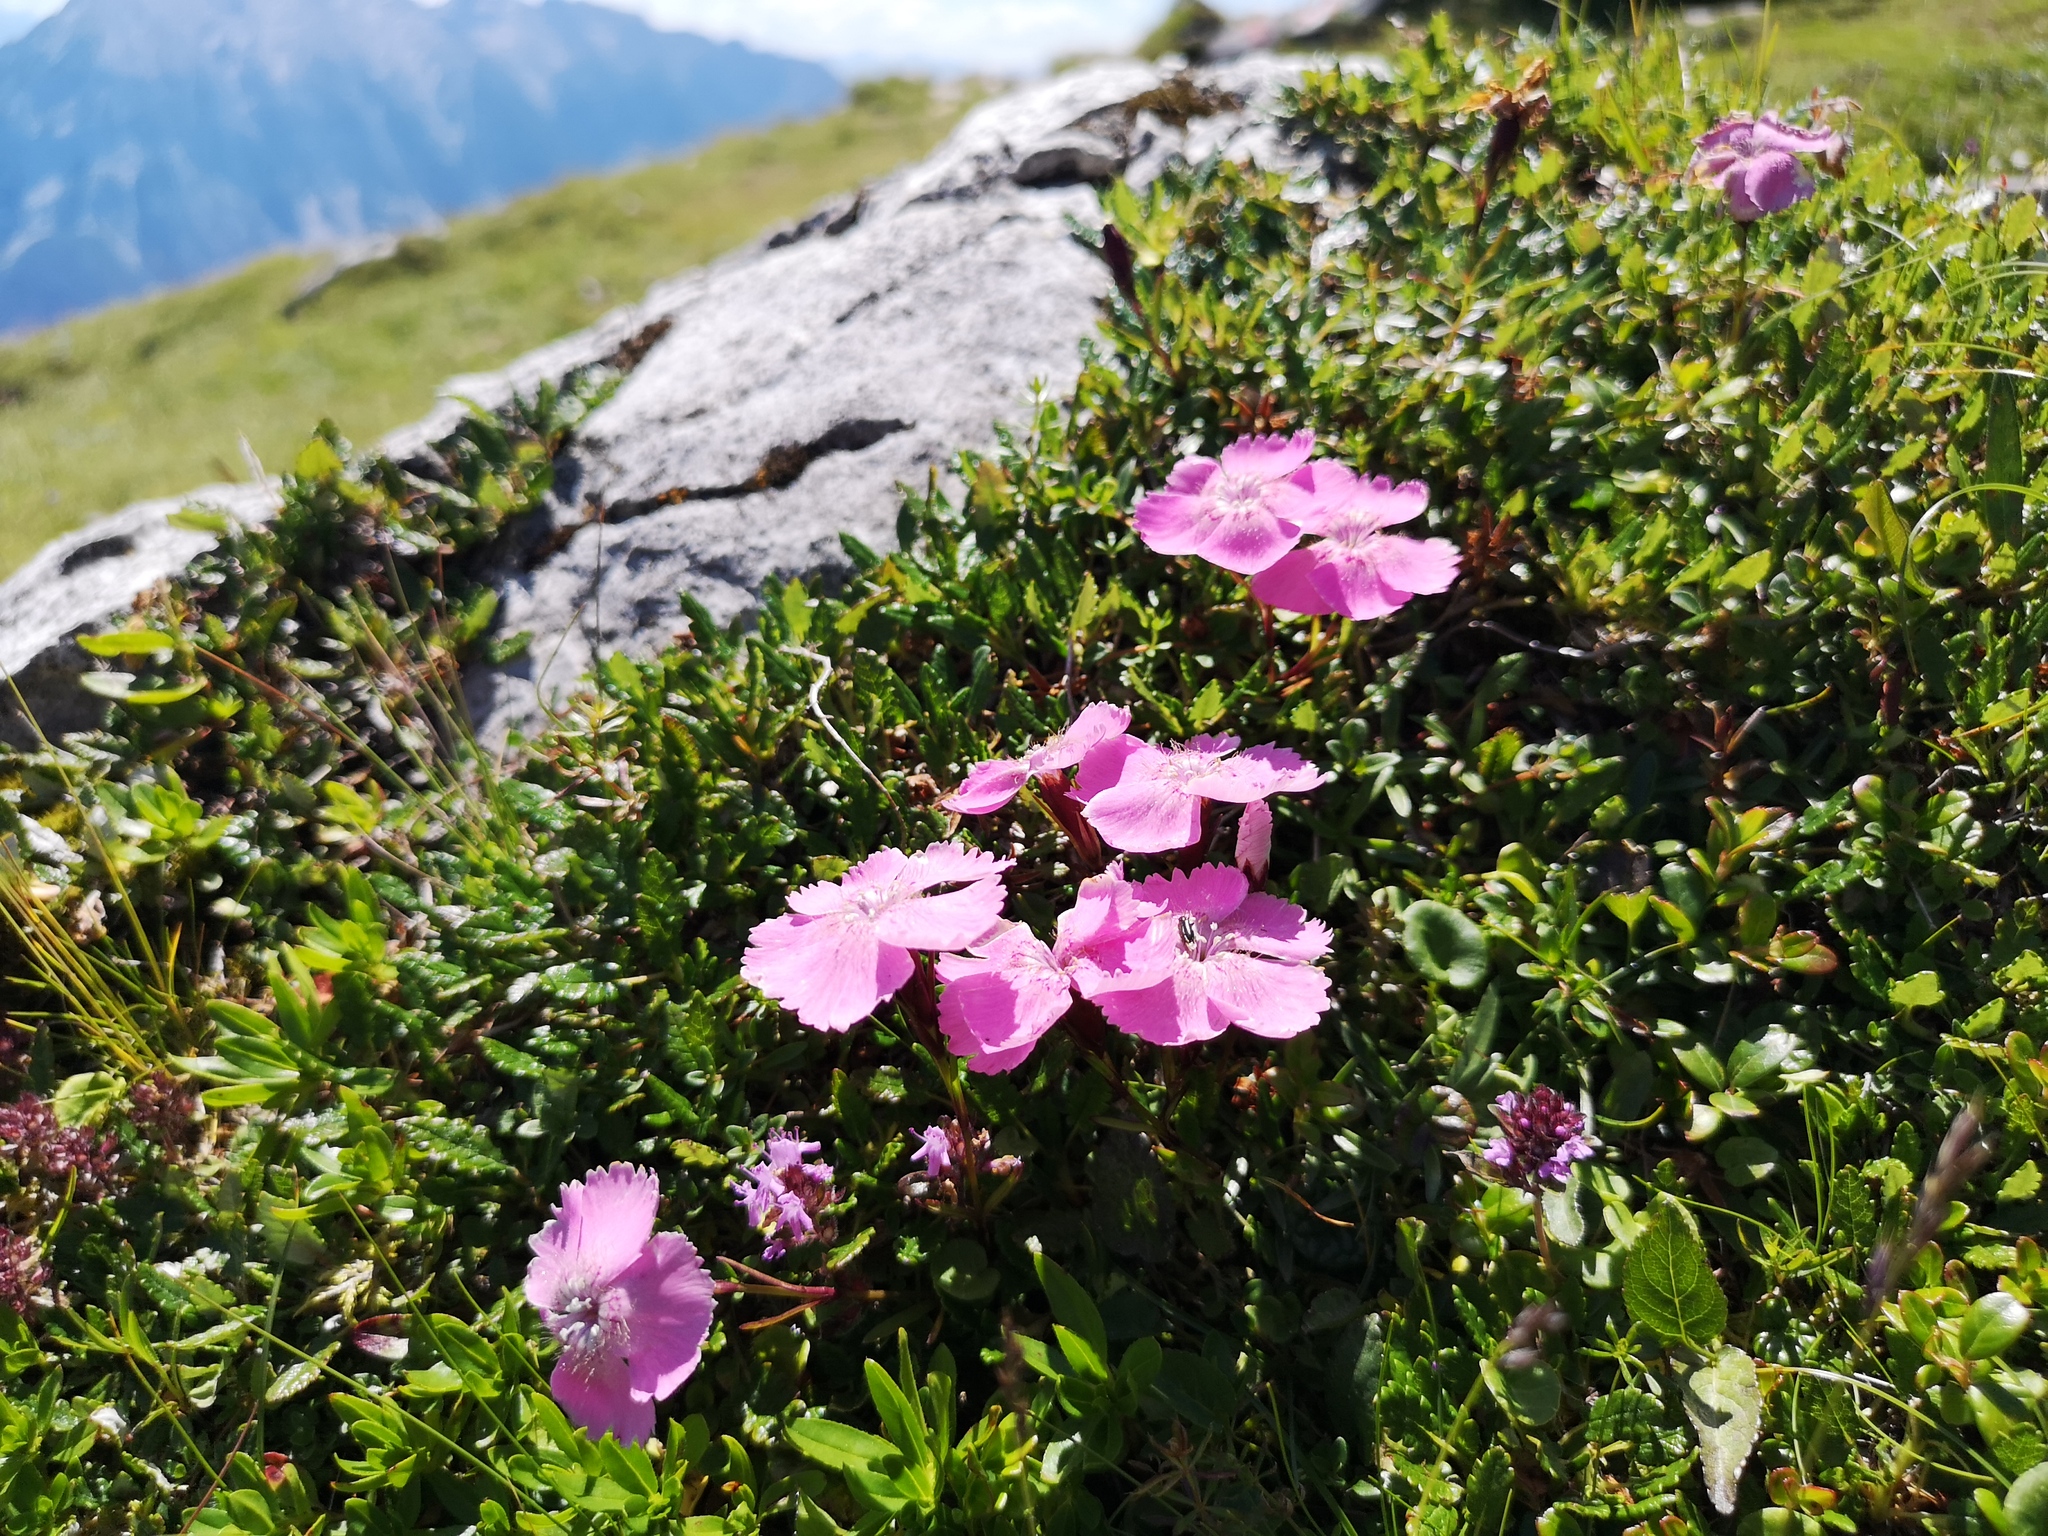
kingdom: Plantae
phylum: Tracheophyta
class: Magnoliopsida
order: Caryophyllales
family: Caryophyllaceae
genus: Dianthus
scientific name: Dianthus alpinus
